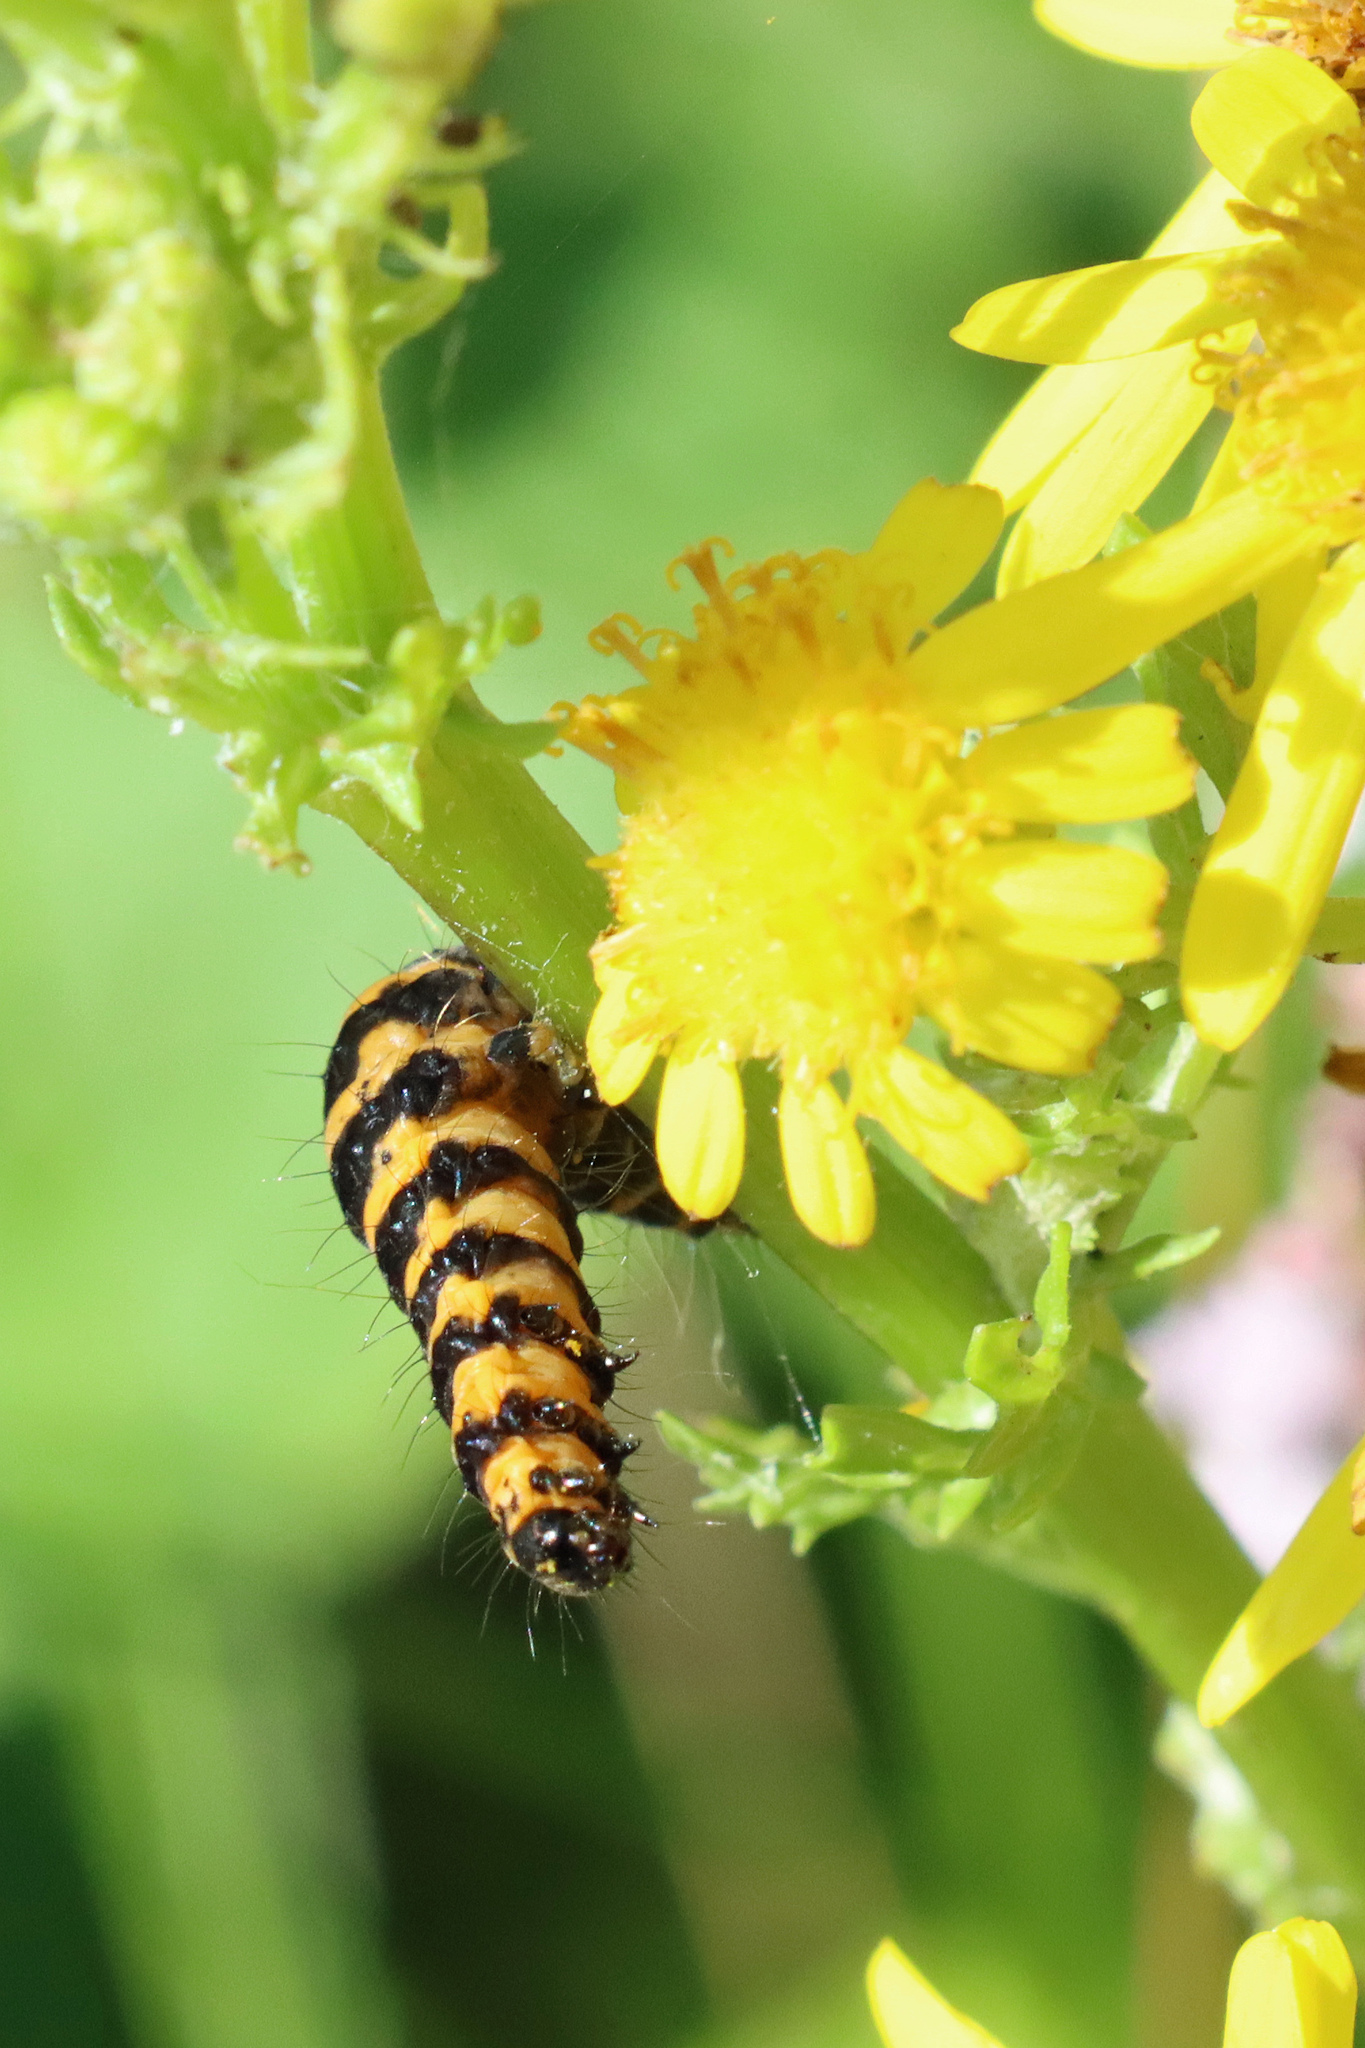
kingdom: Animalia
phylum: Arthropoda
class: Insecta
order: Lepidoptera
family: Erebidae
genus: Tyria
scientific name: Tyria jacobaeae
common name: Cinnabar
